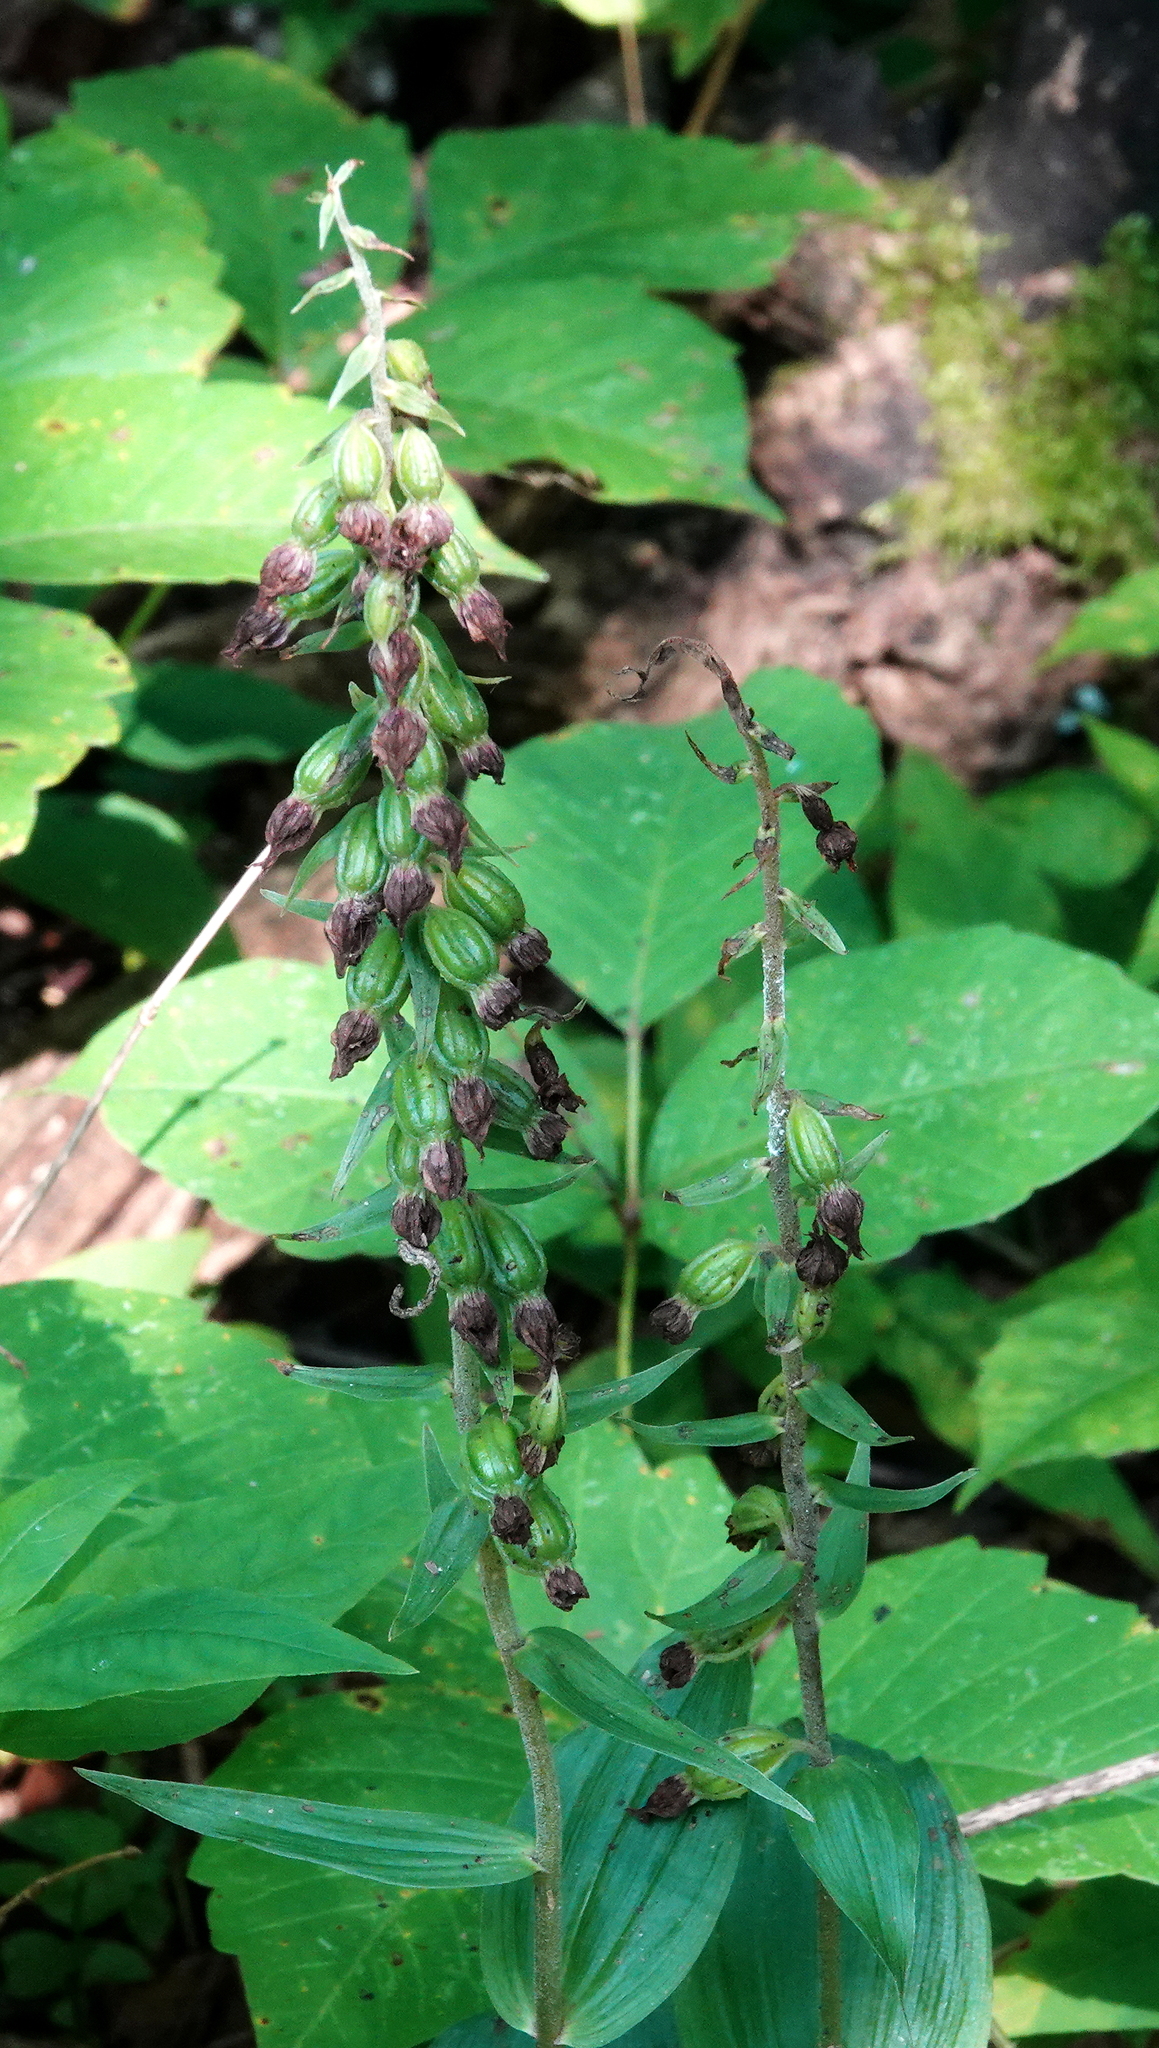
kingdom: Plantae
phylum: Tracheophyta
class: Liliopsida
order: Asparagales
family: Orchidaceae
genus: Epipactis
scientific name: Epipactis helleborine
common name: Broad-leaved helleborine
